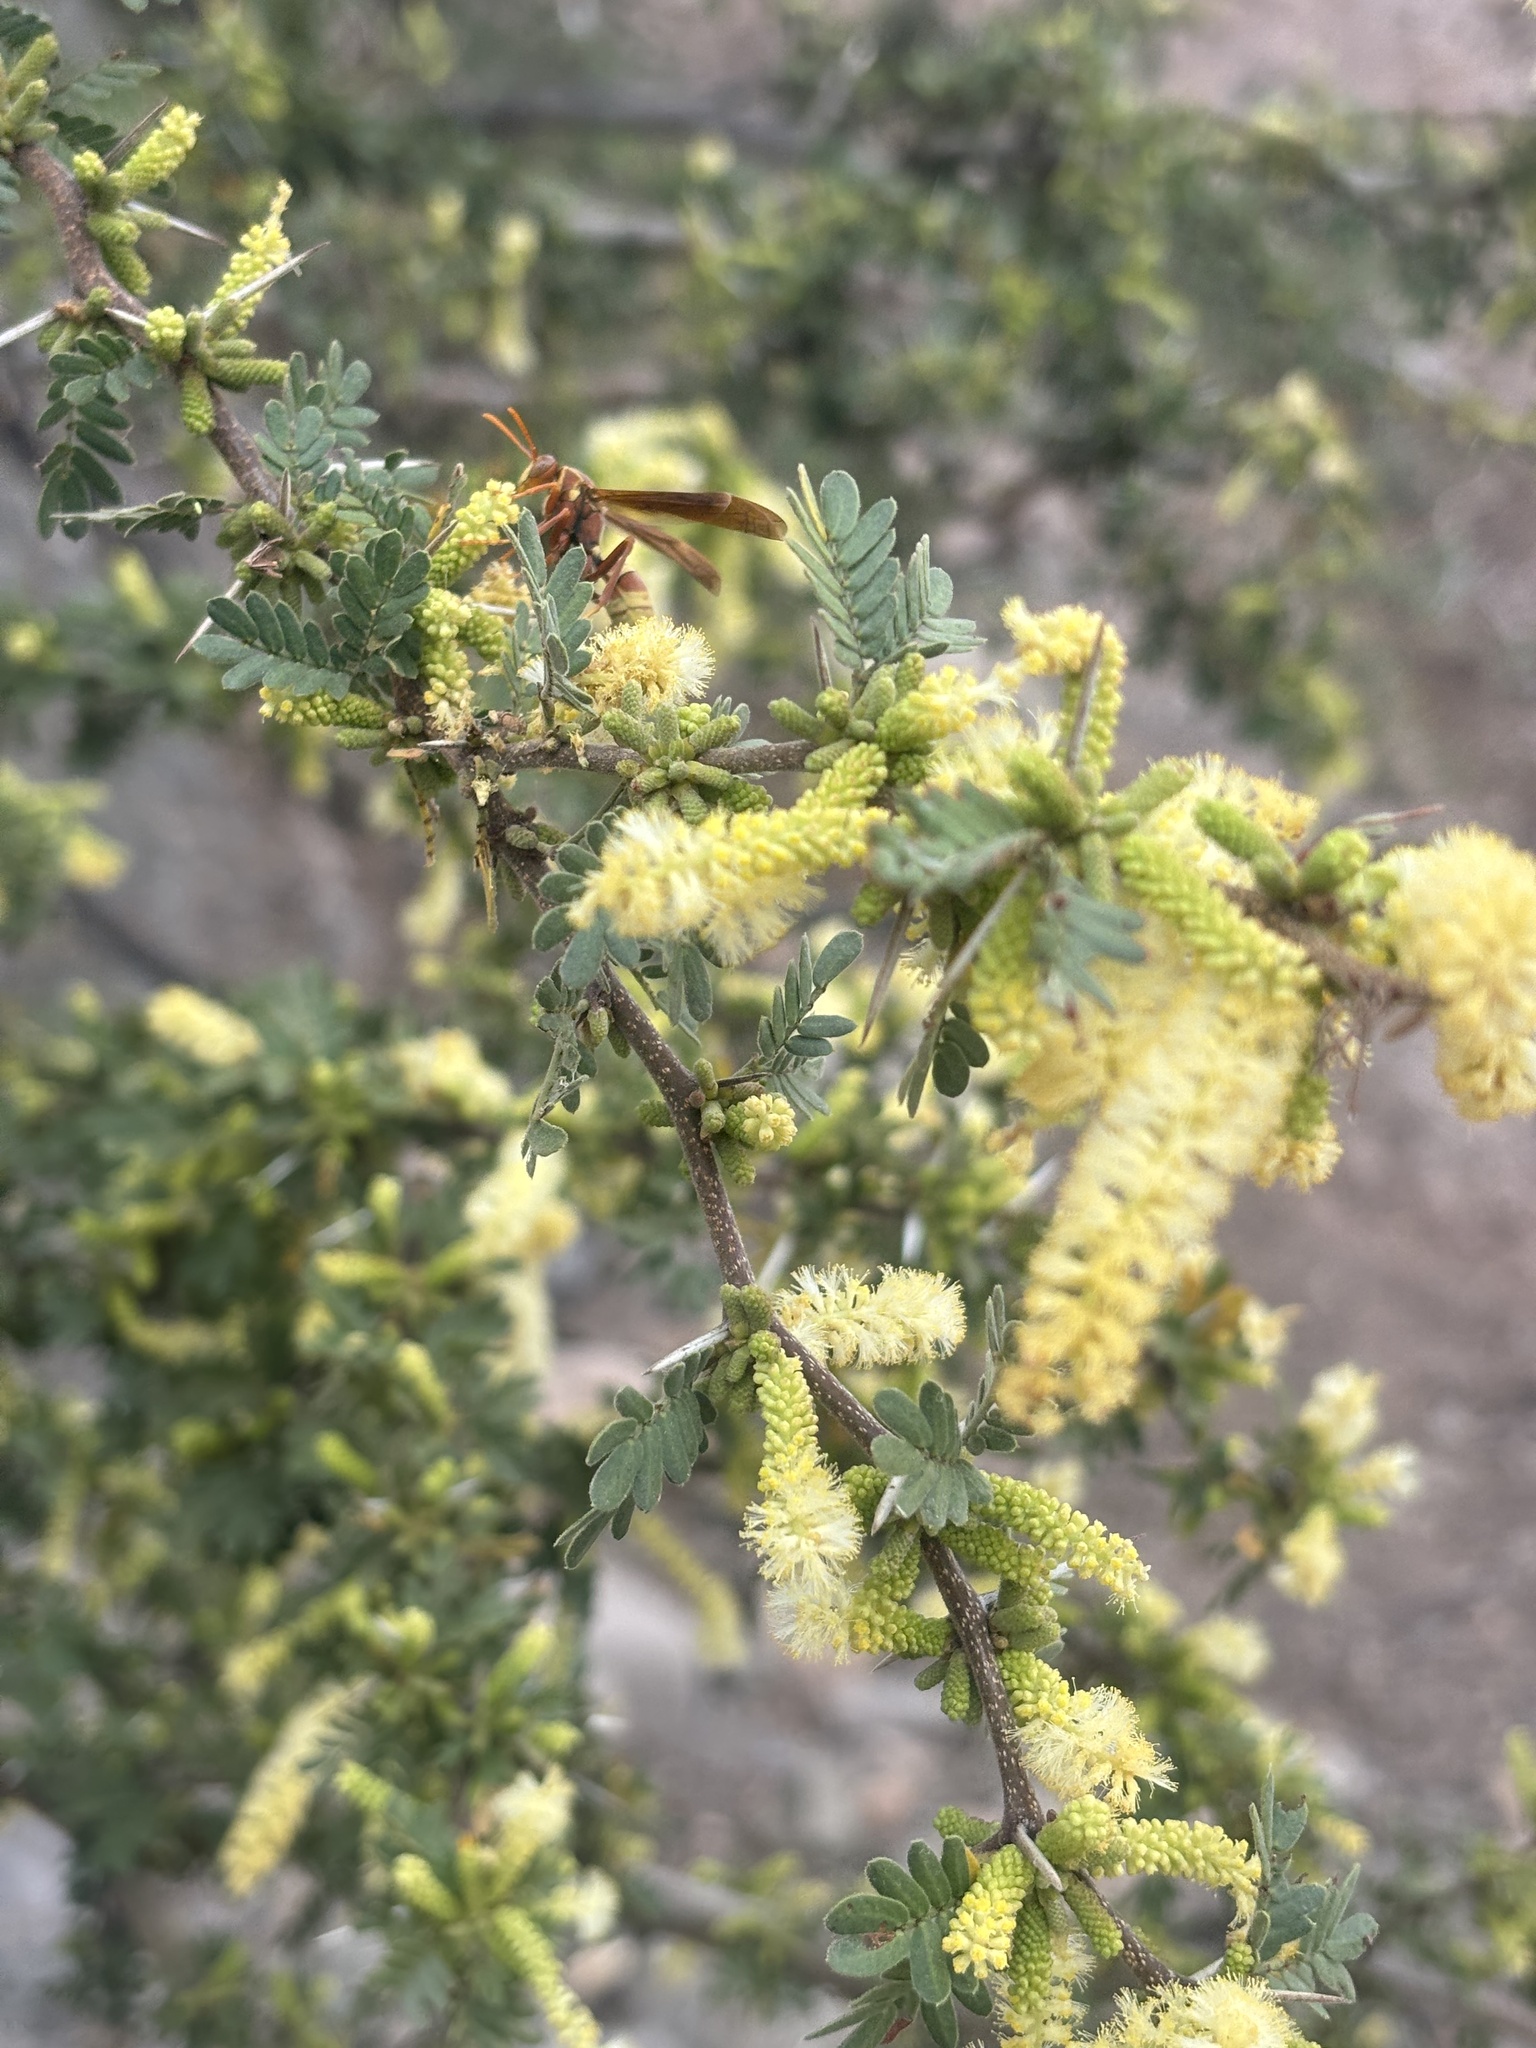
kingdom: Animalia
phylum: Arthropoda
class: Insecta
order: Hymenoptera
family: Eumenidae
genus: Polistes
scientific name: Polistes palmarum
